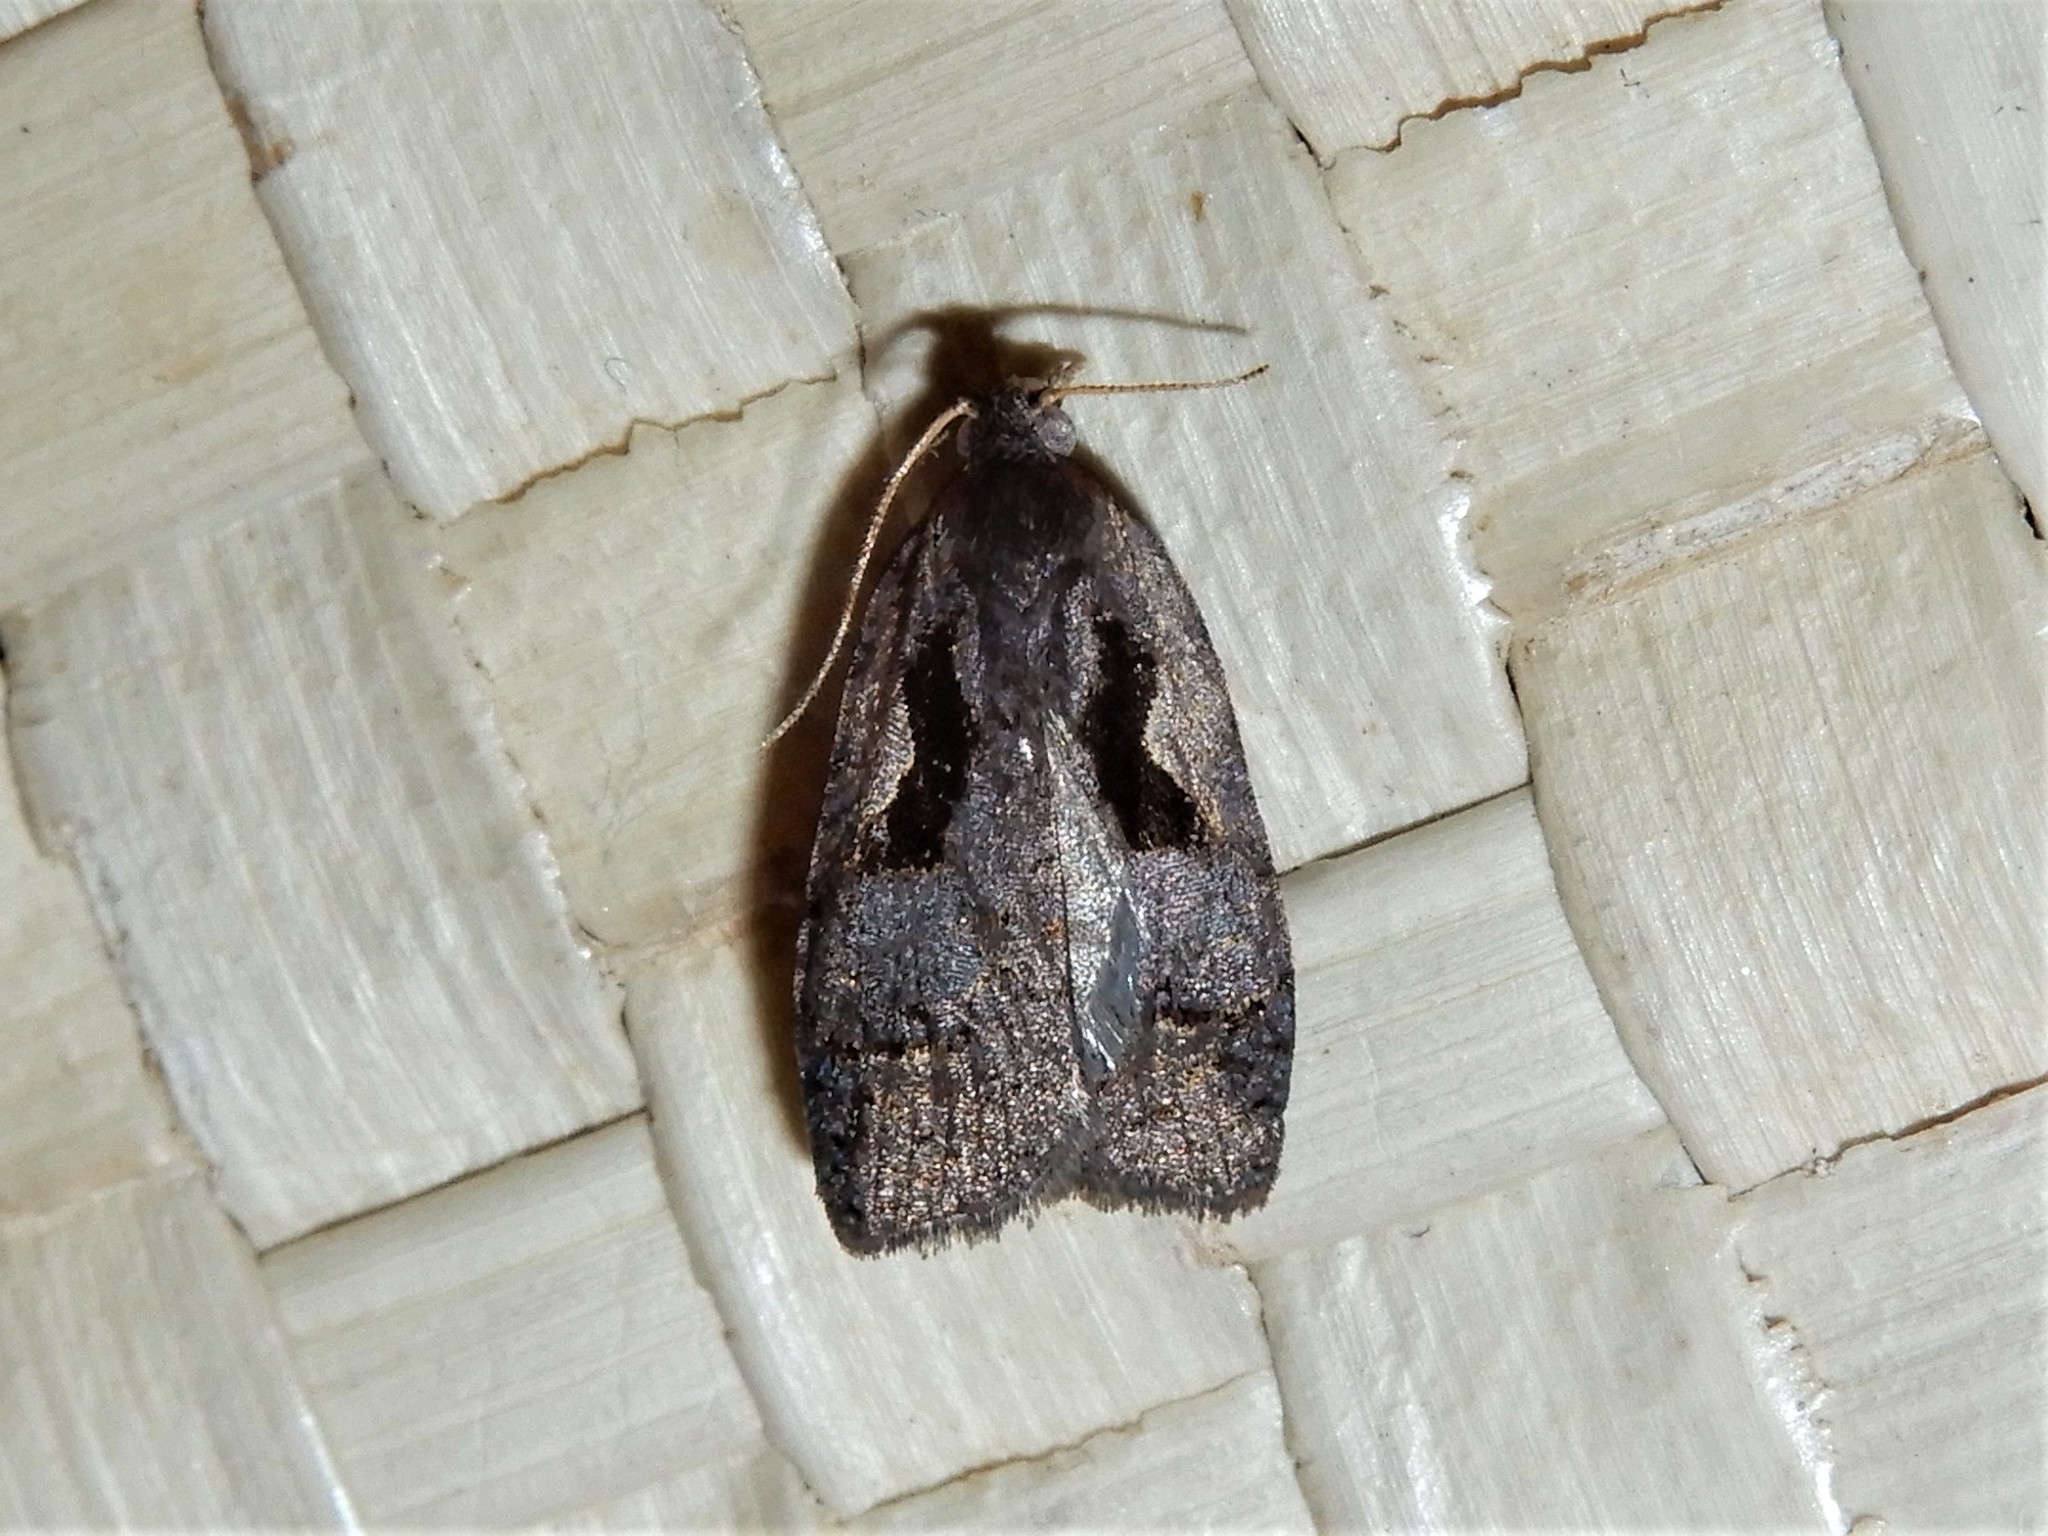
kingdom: Animalia
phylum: Arthropoda
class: Insecta
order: Lepidoptera
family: Tortricidae
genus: Cnephasia
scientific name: Cnephasia jactatana
